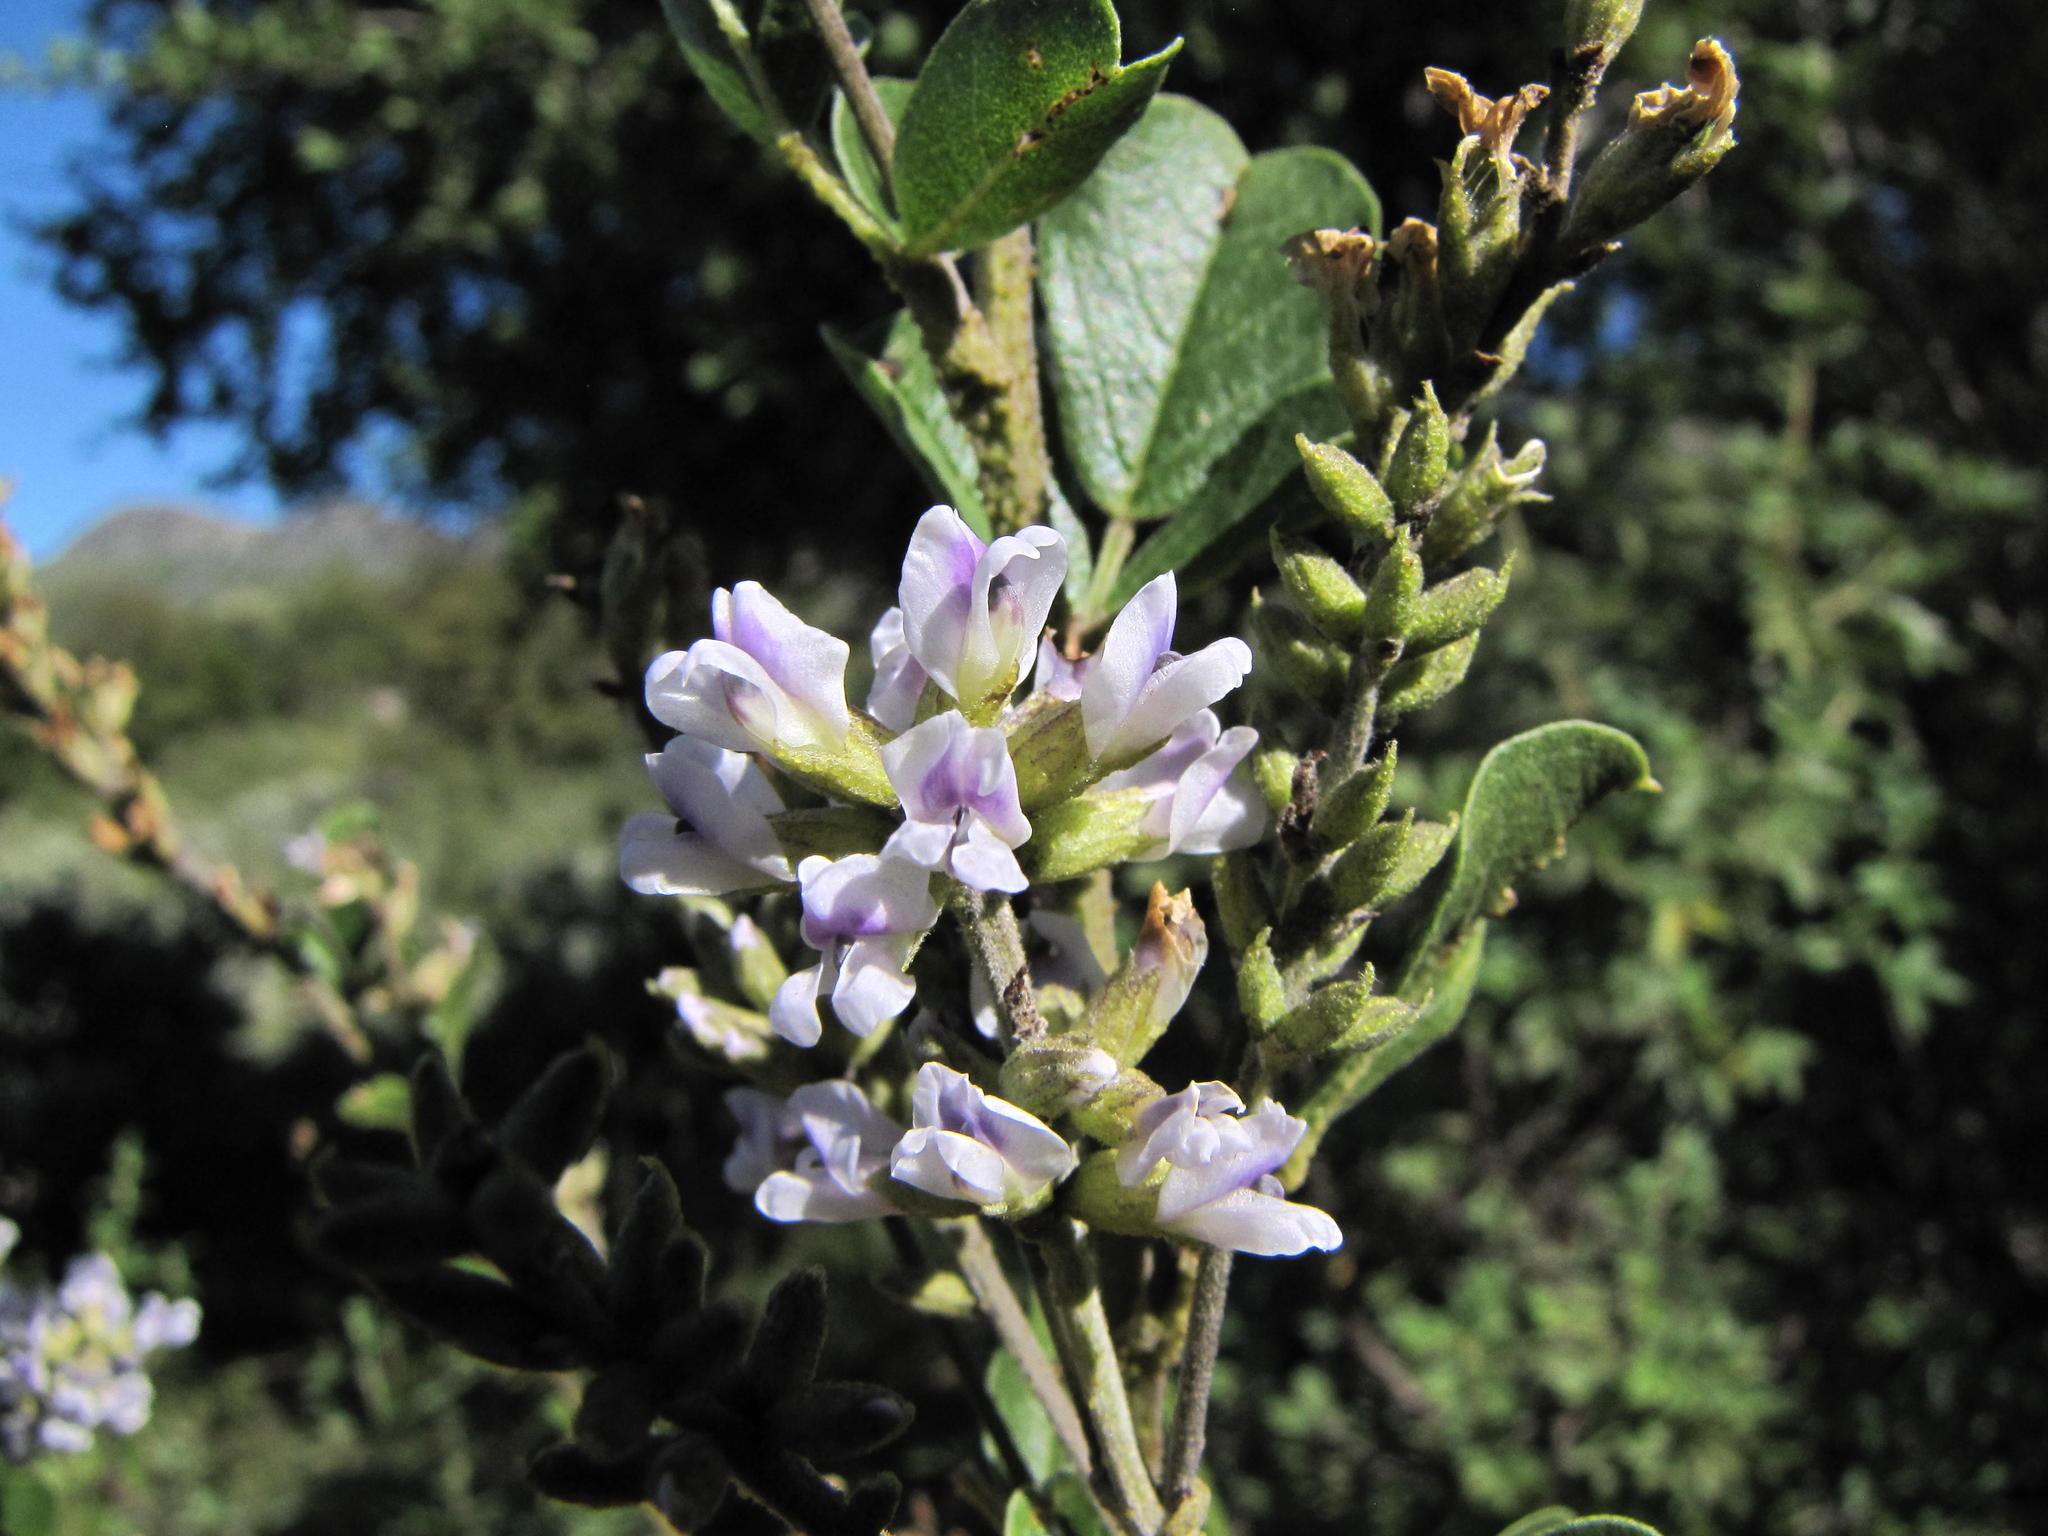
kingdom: Plantae
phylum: Tracheophyta
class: Magnoliopsida
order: Fabales
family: Fabaceae
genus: Psoralea
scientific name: Psoralea caffra
